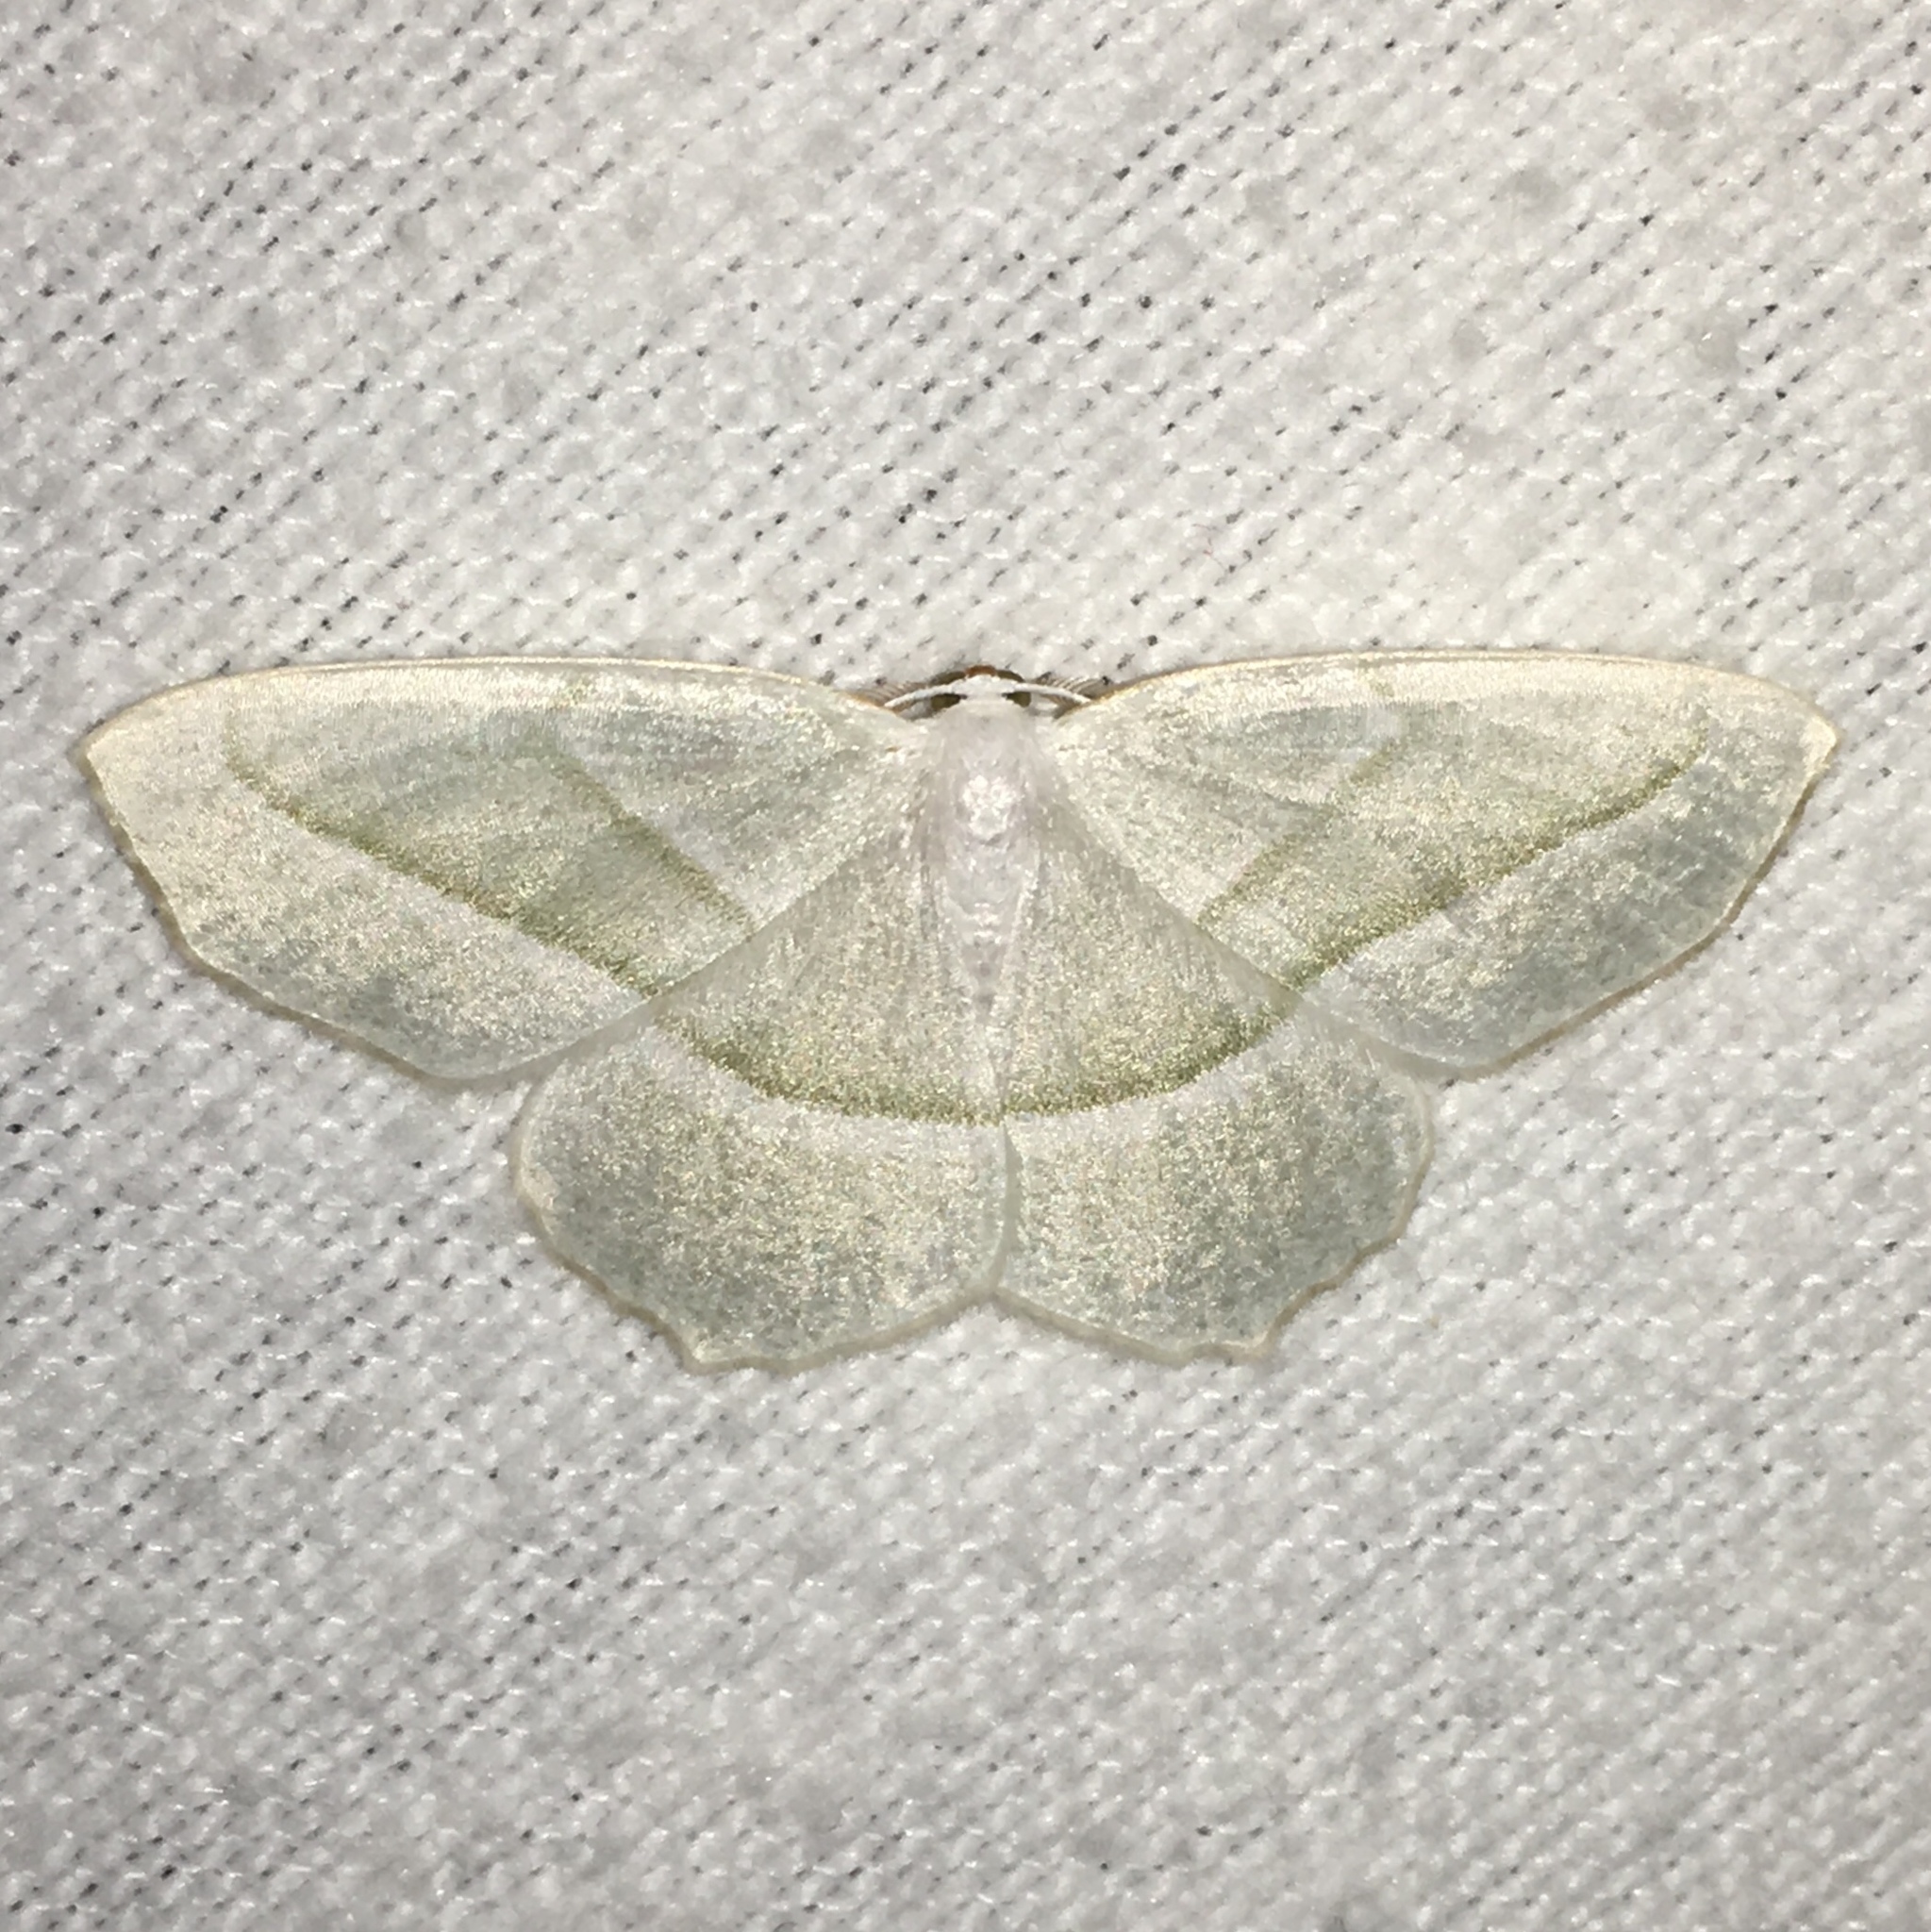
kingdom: Animalia
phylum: Arthropoda
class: Insecta
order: Lepidoptera
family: Geometridae
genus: Campaea
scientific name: Campaea perlata
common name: Fringed looper
